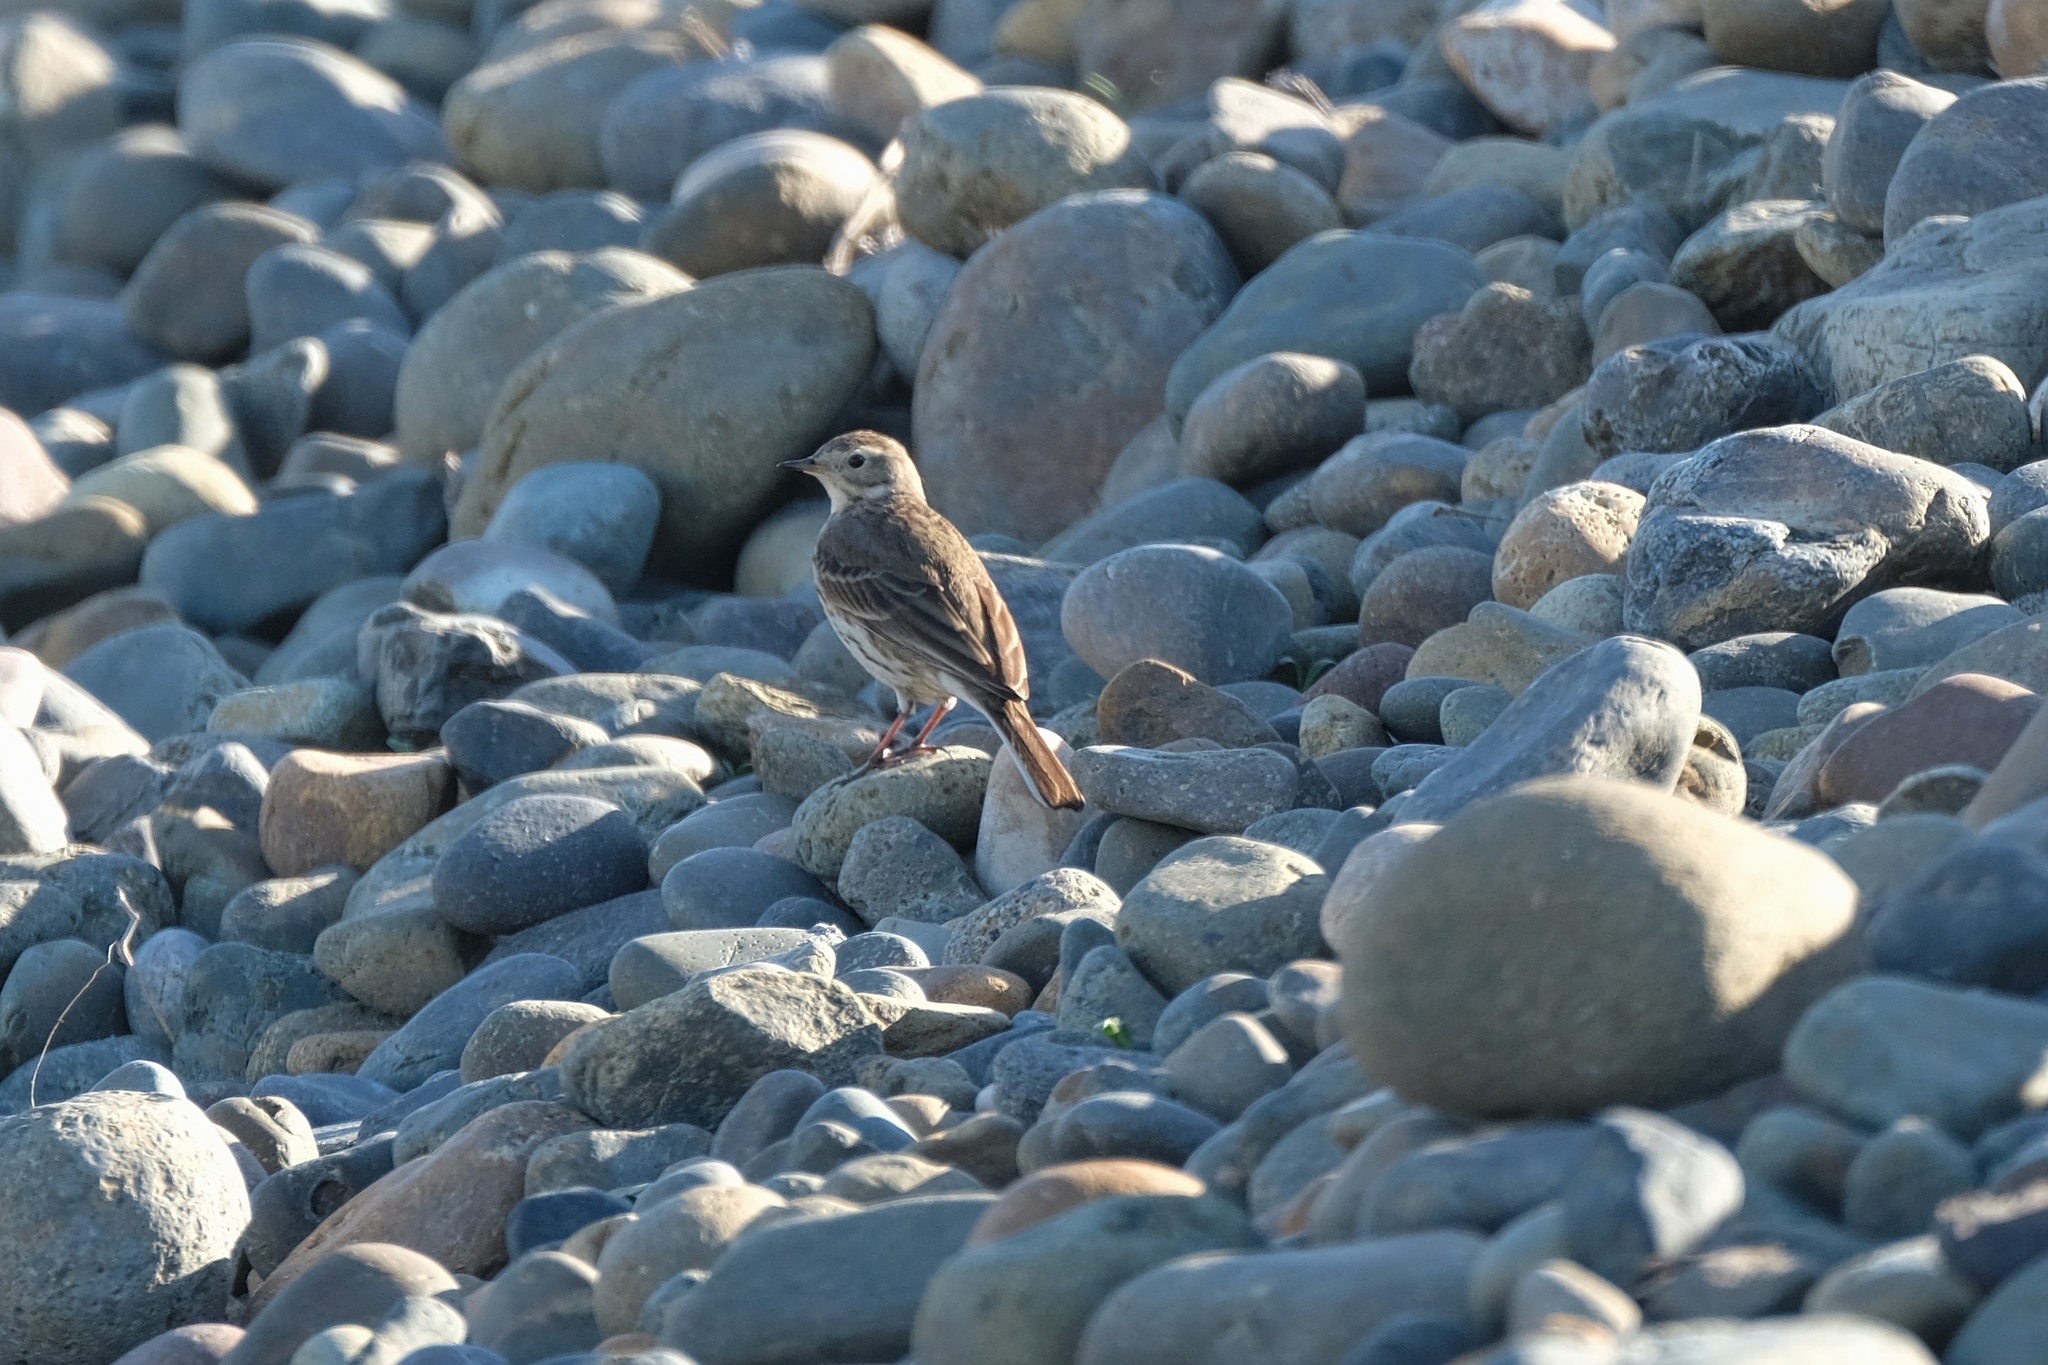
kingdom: Animalia
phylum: Chordata
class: Aves
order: Passeriformes
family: Motacillidae
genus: Anthus
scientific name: Anthus rubescens
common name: Buff-bellied pipit
